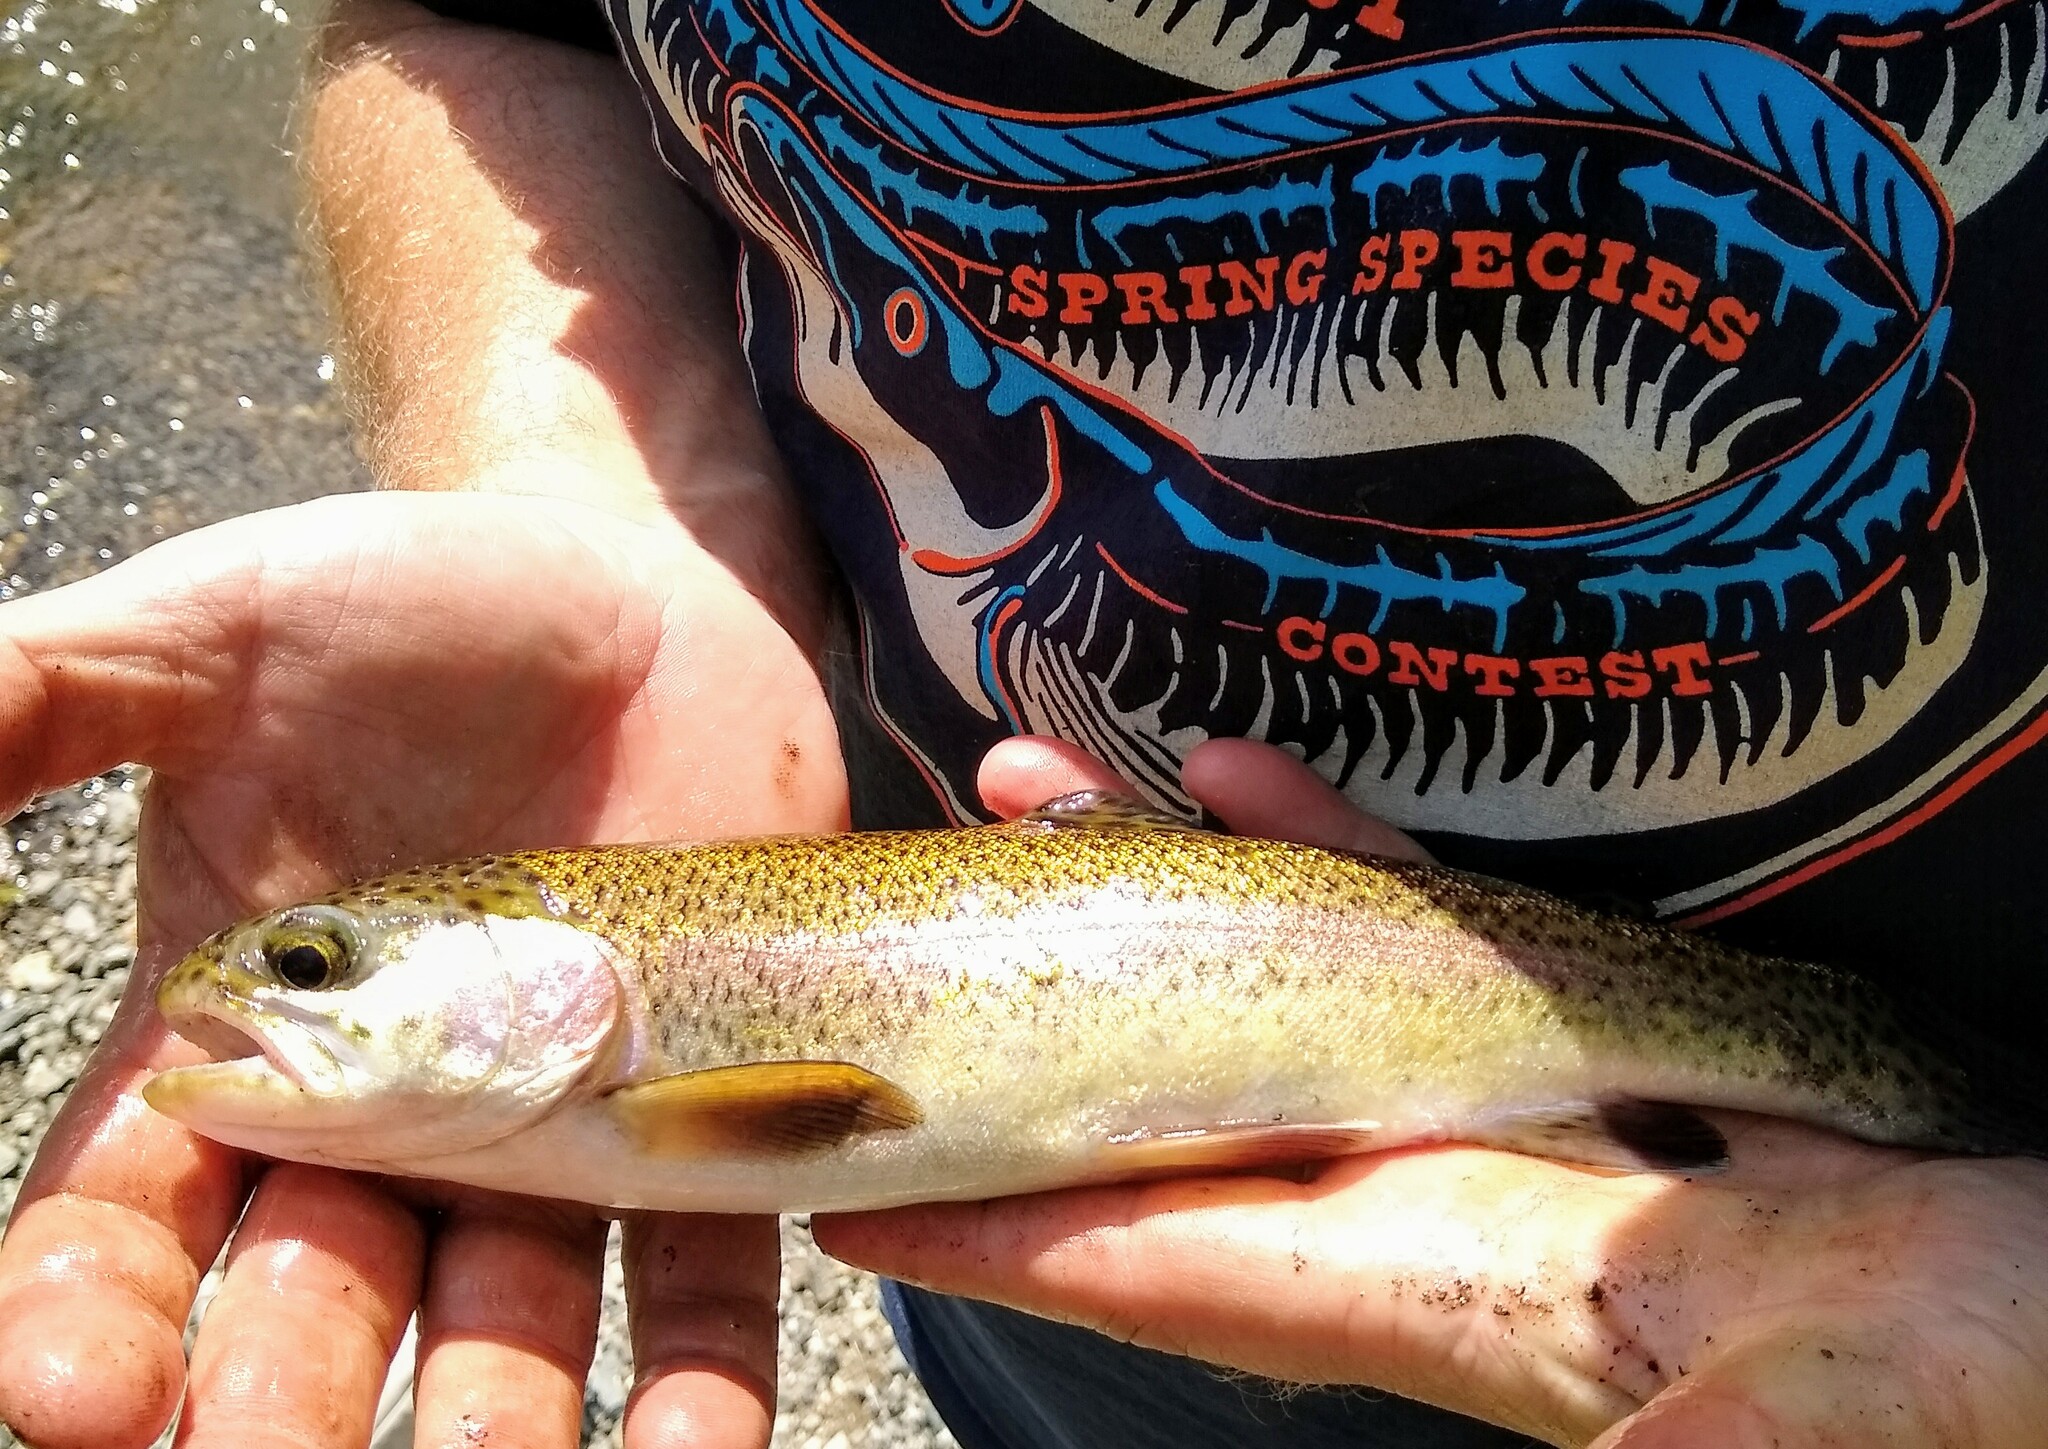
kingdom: Animalia
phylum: Chordata
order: Salmoniformes
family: Salmonidae
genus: Oncorhynchus
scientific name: Oncorhynchus mykiss
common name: Rainbow trout
